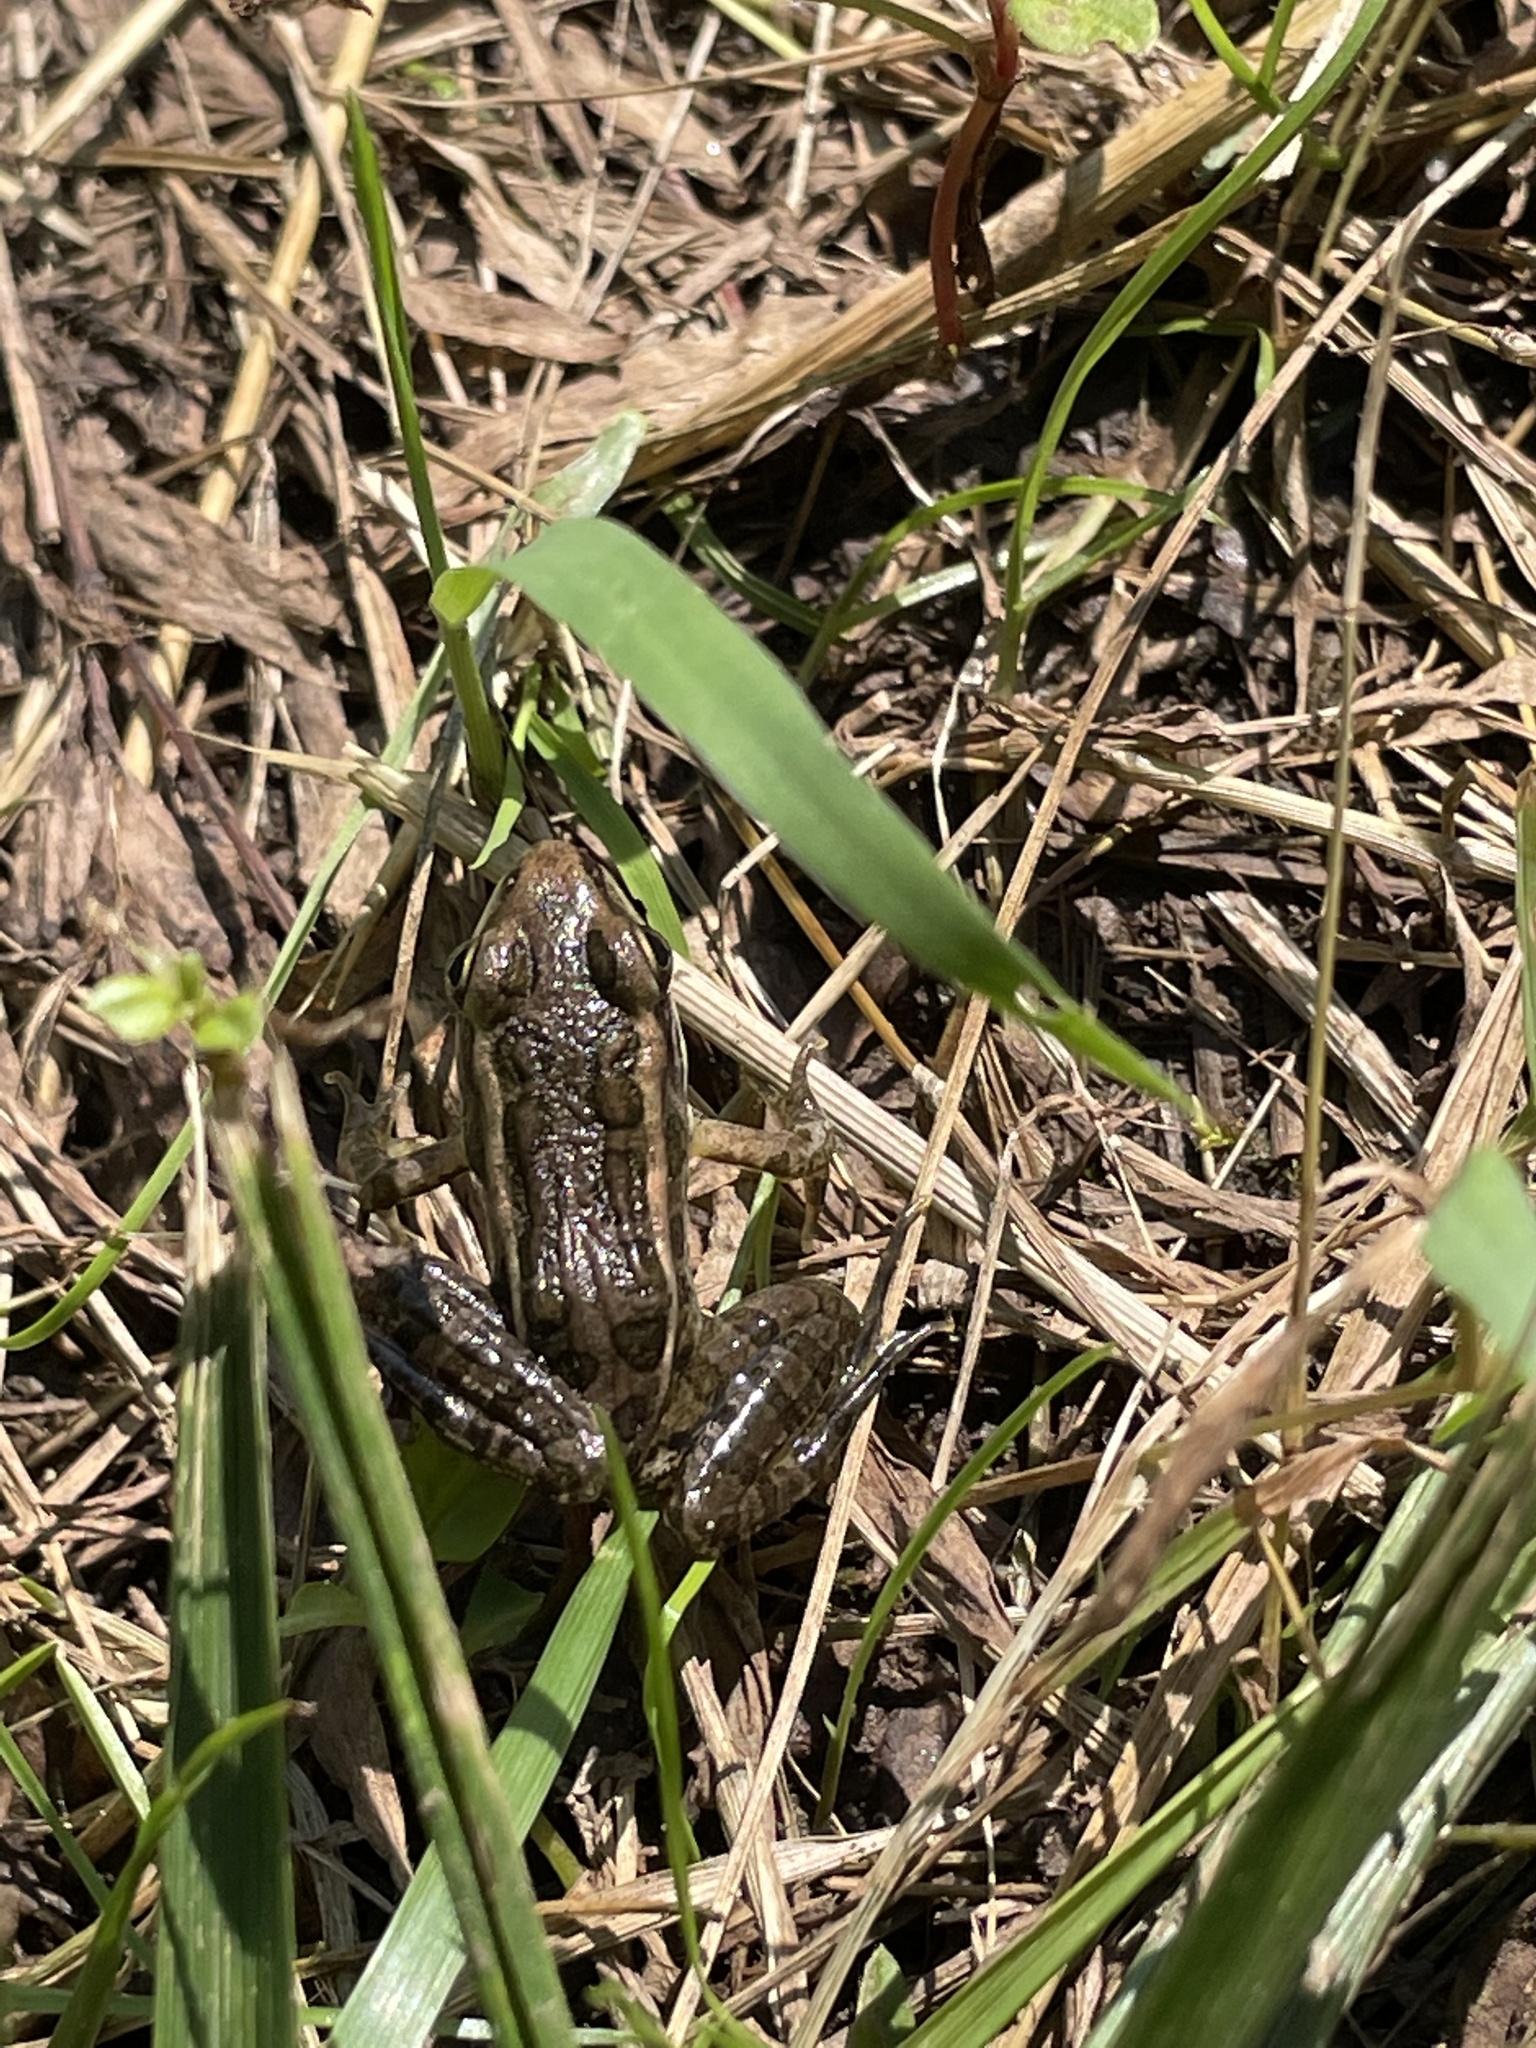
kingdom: Animalia
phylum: Chordata
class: Amphibia
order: Anura
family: Ranidae
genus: Lithobates
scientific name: Lithobates palustris
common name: Pickerel frog
